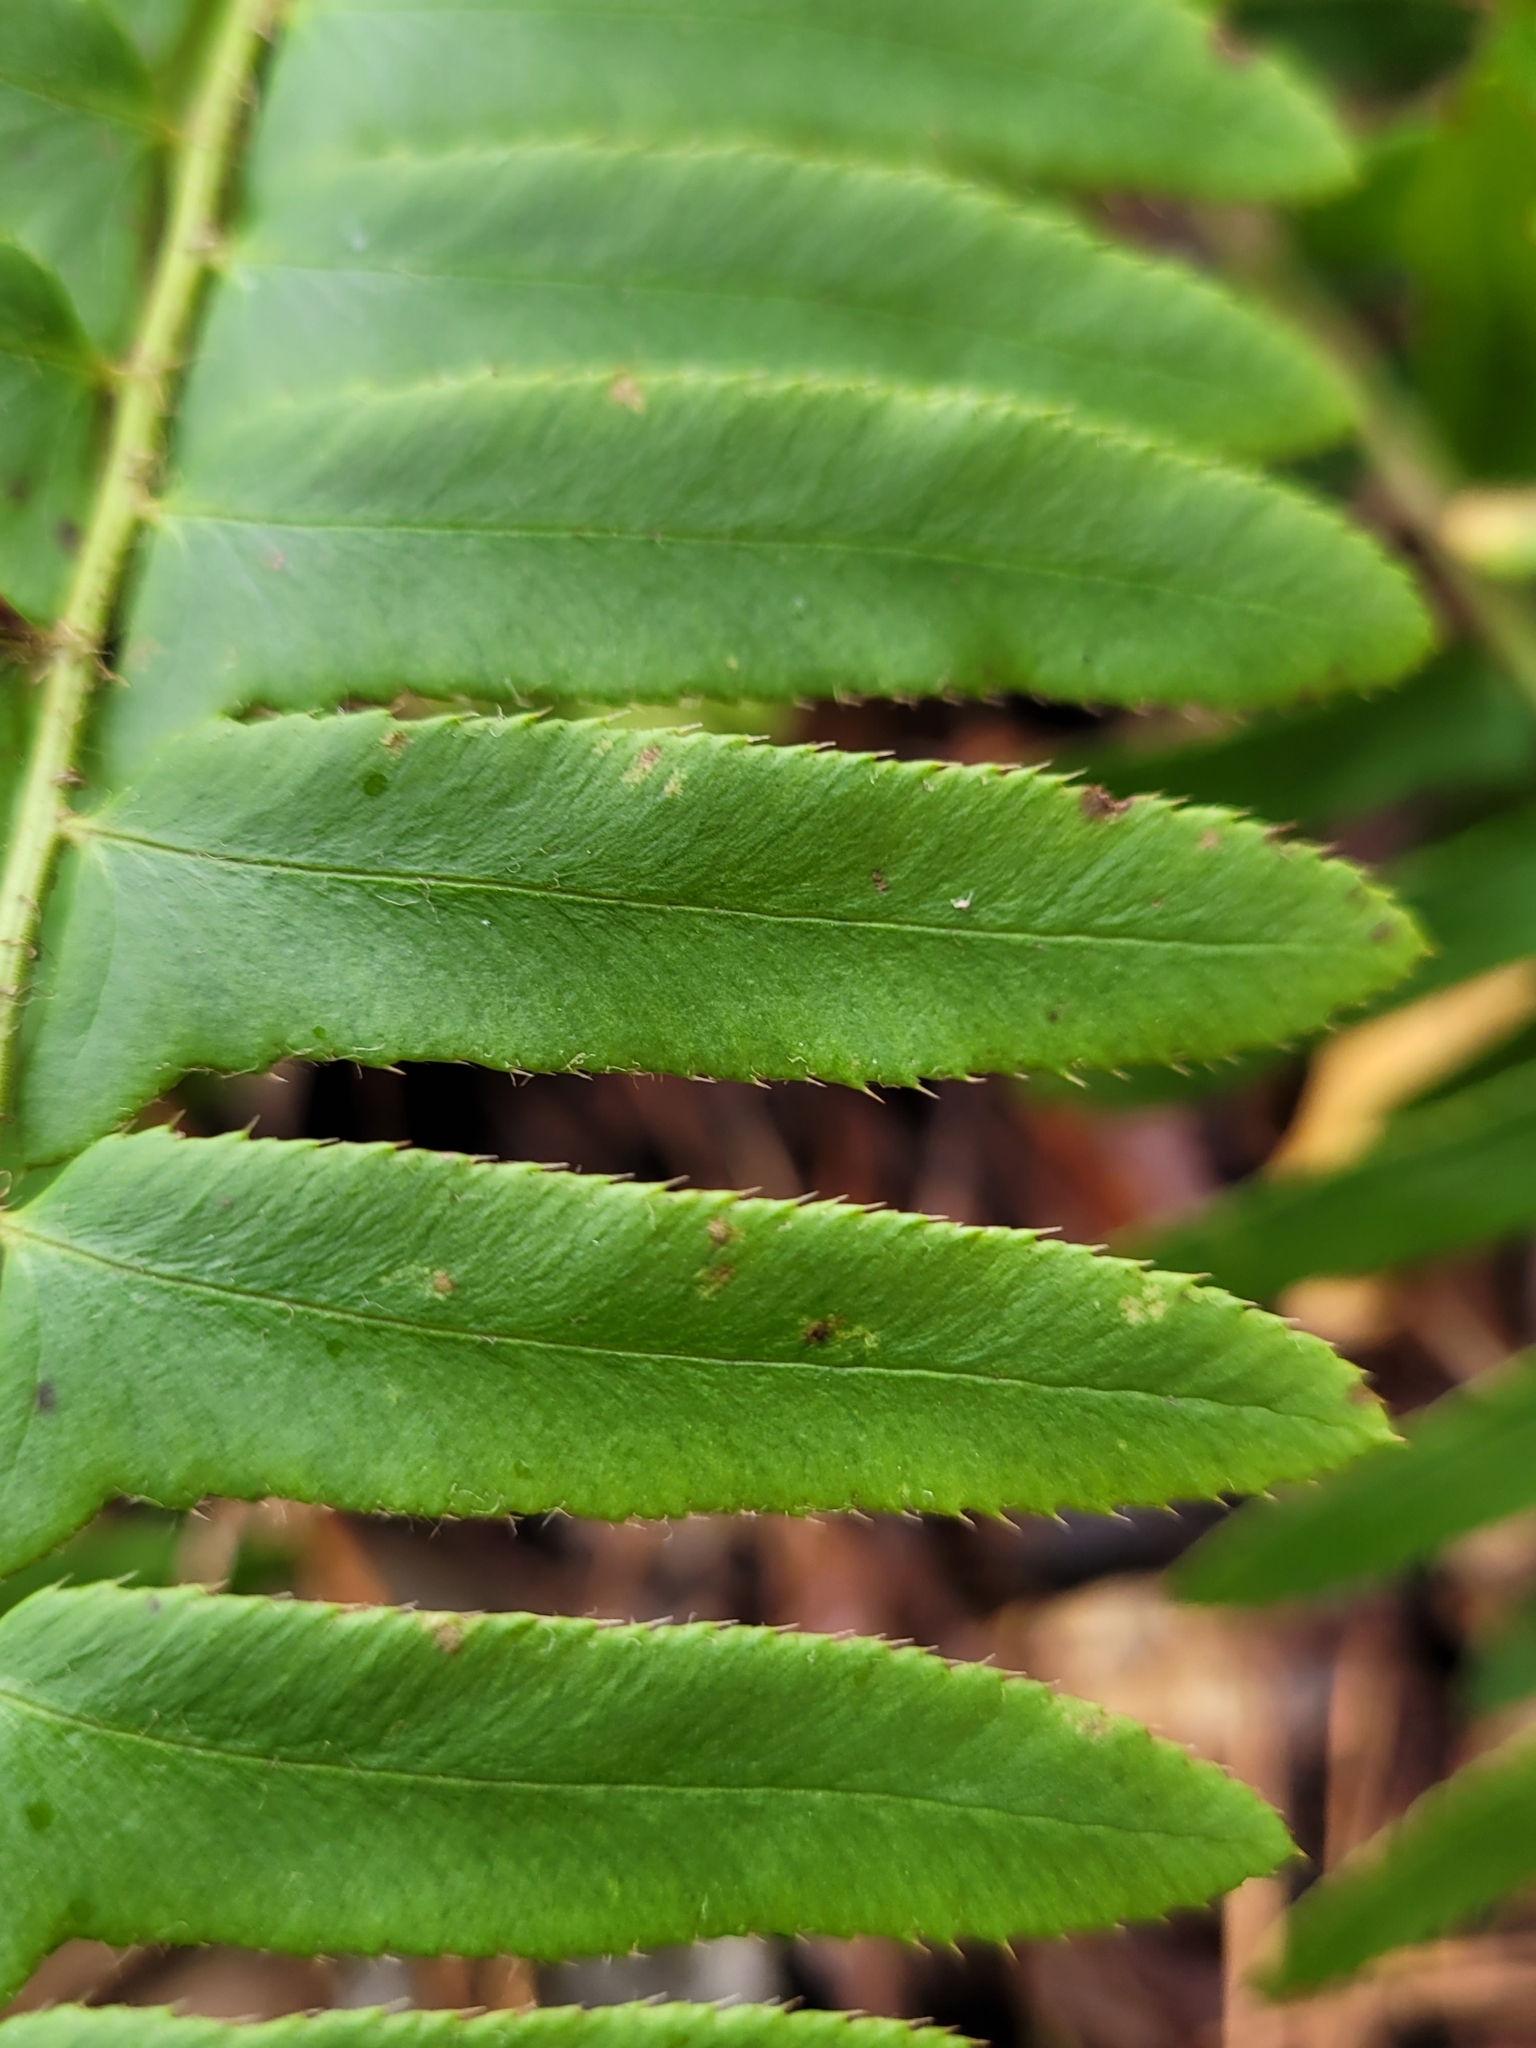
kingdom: Plantae
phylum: Tracheophyta
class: Polypodiopsida
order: Polypodiales
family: Dryopteridaceae
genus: Polystichum
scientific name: Polystichum acrostichoides
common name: Christmas fern
